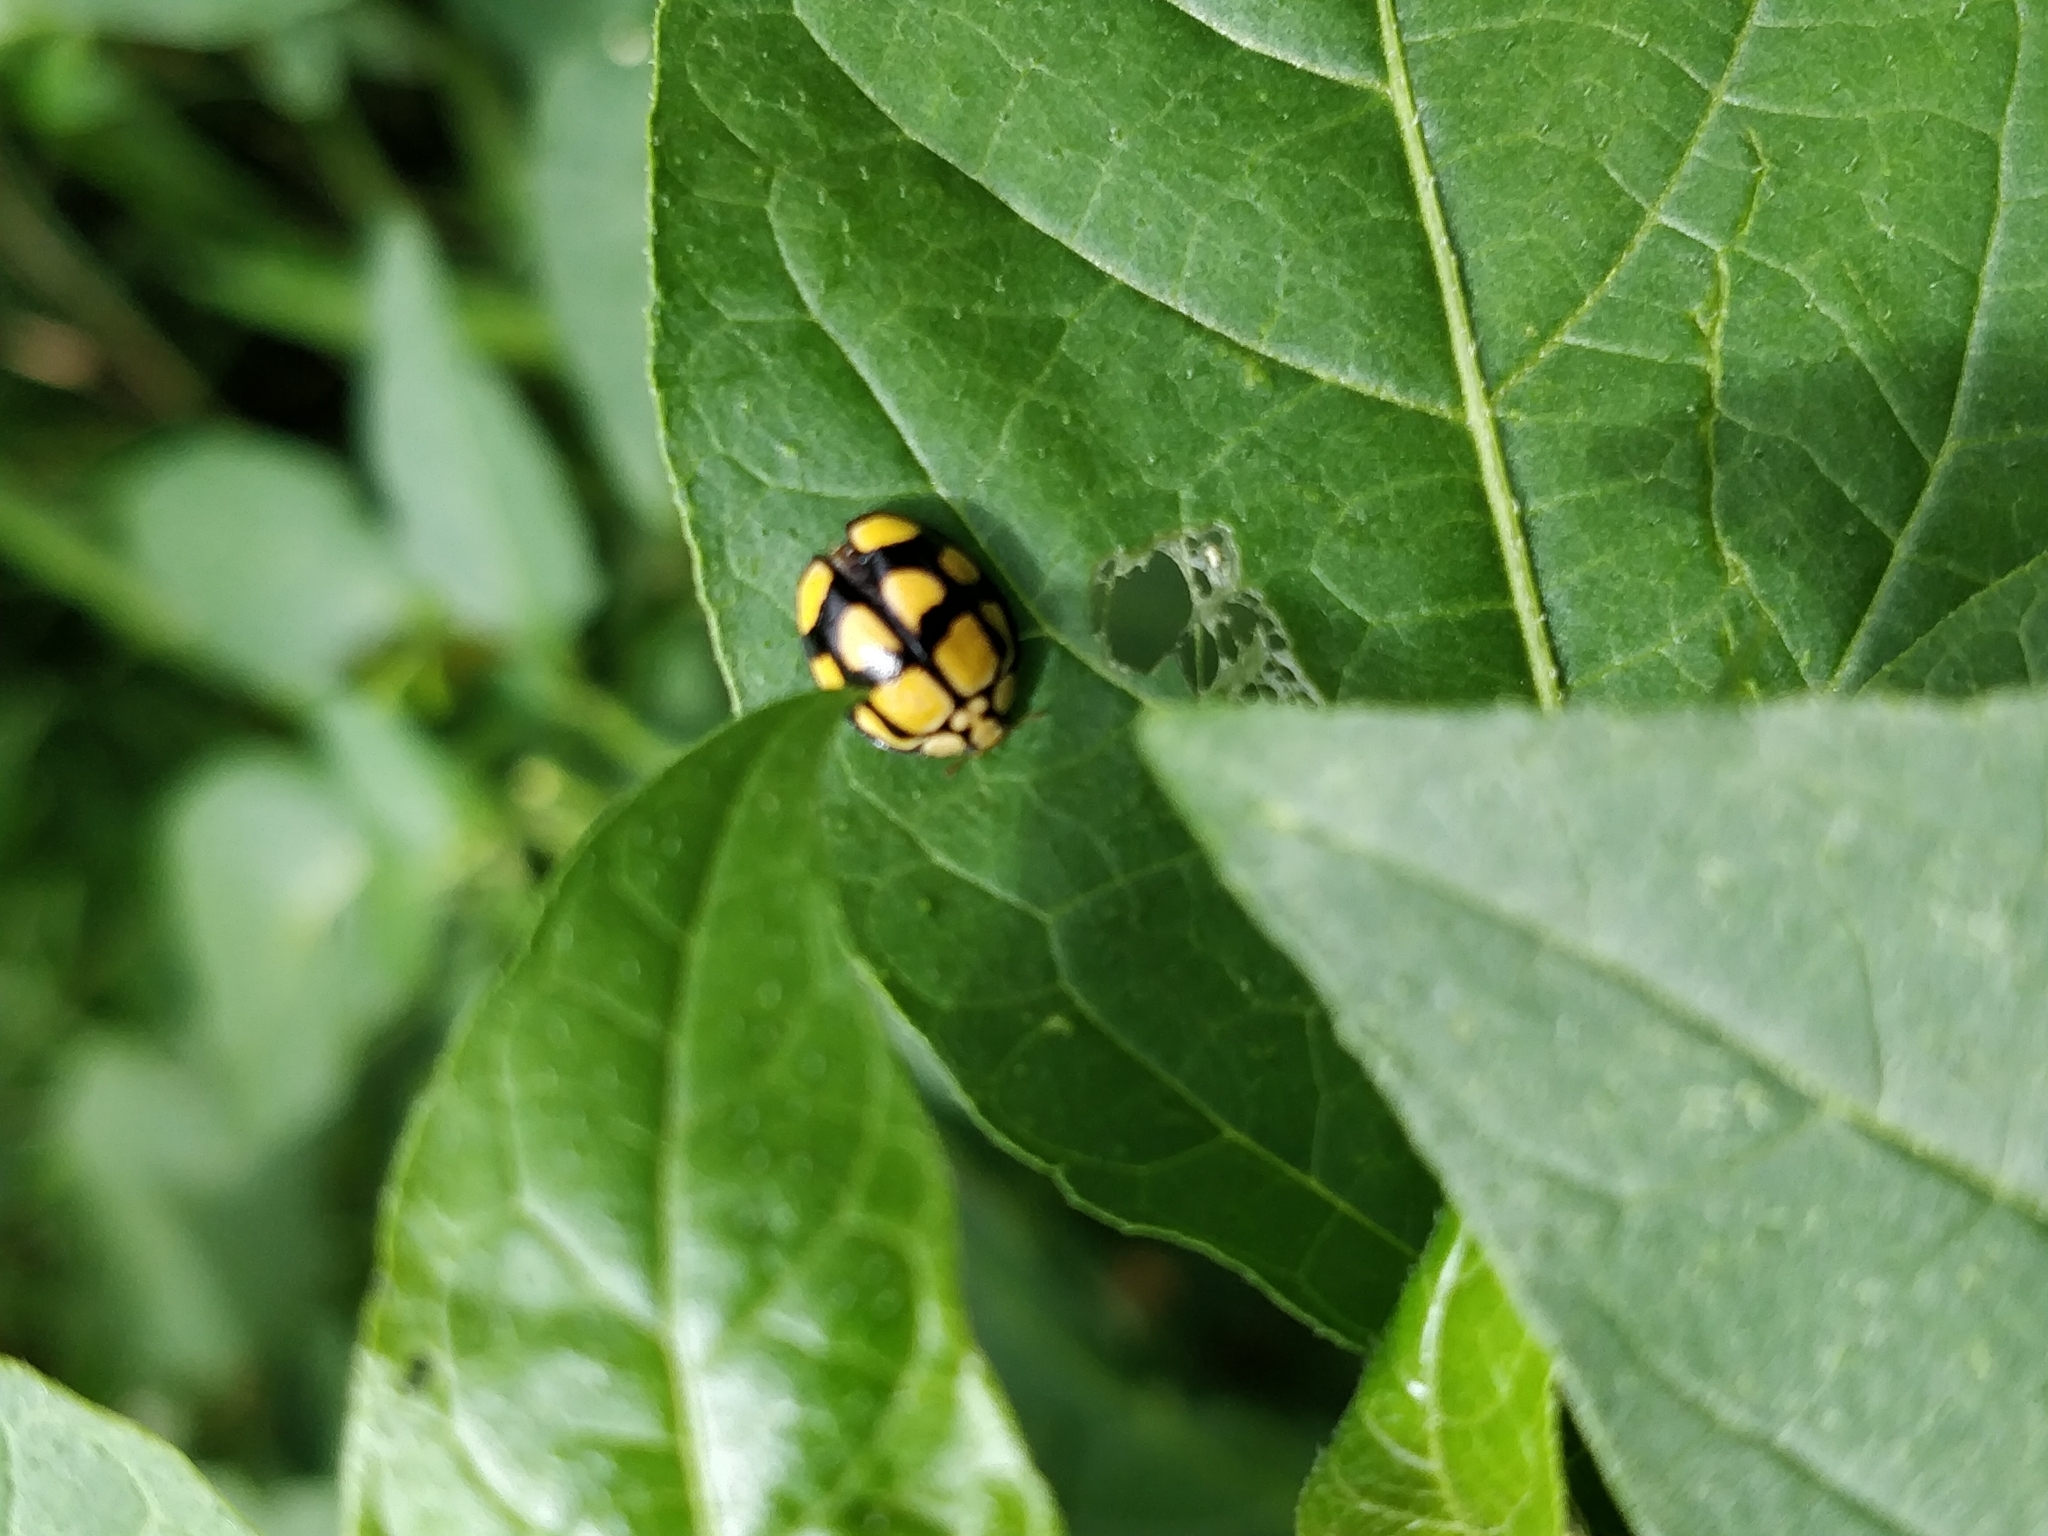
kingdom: Animalia
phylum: Arthropoda
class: Insecta
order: Coleoptera
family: Coccinellidae
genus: Harmonia
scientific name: Harmonia
